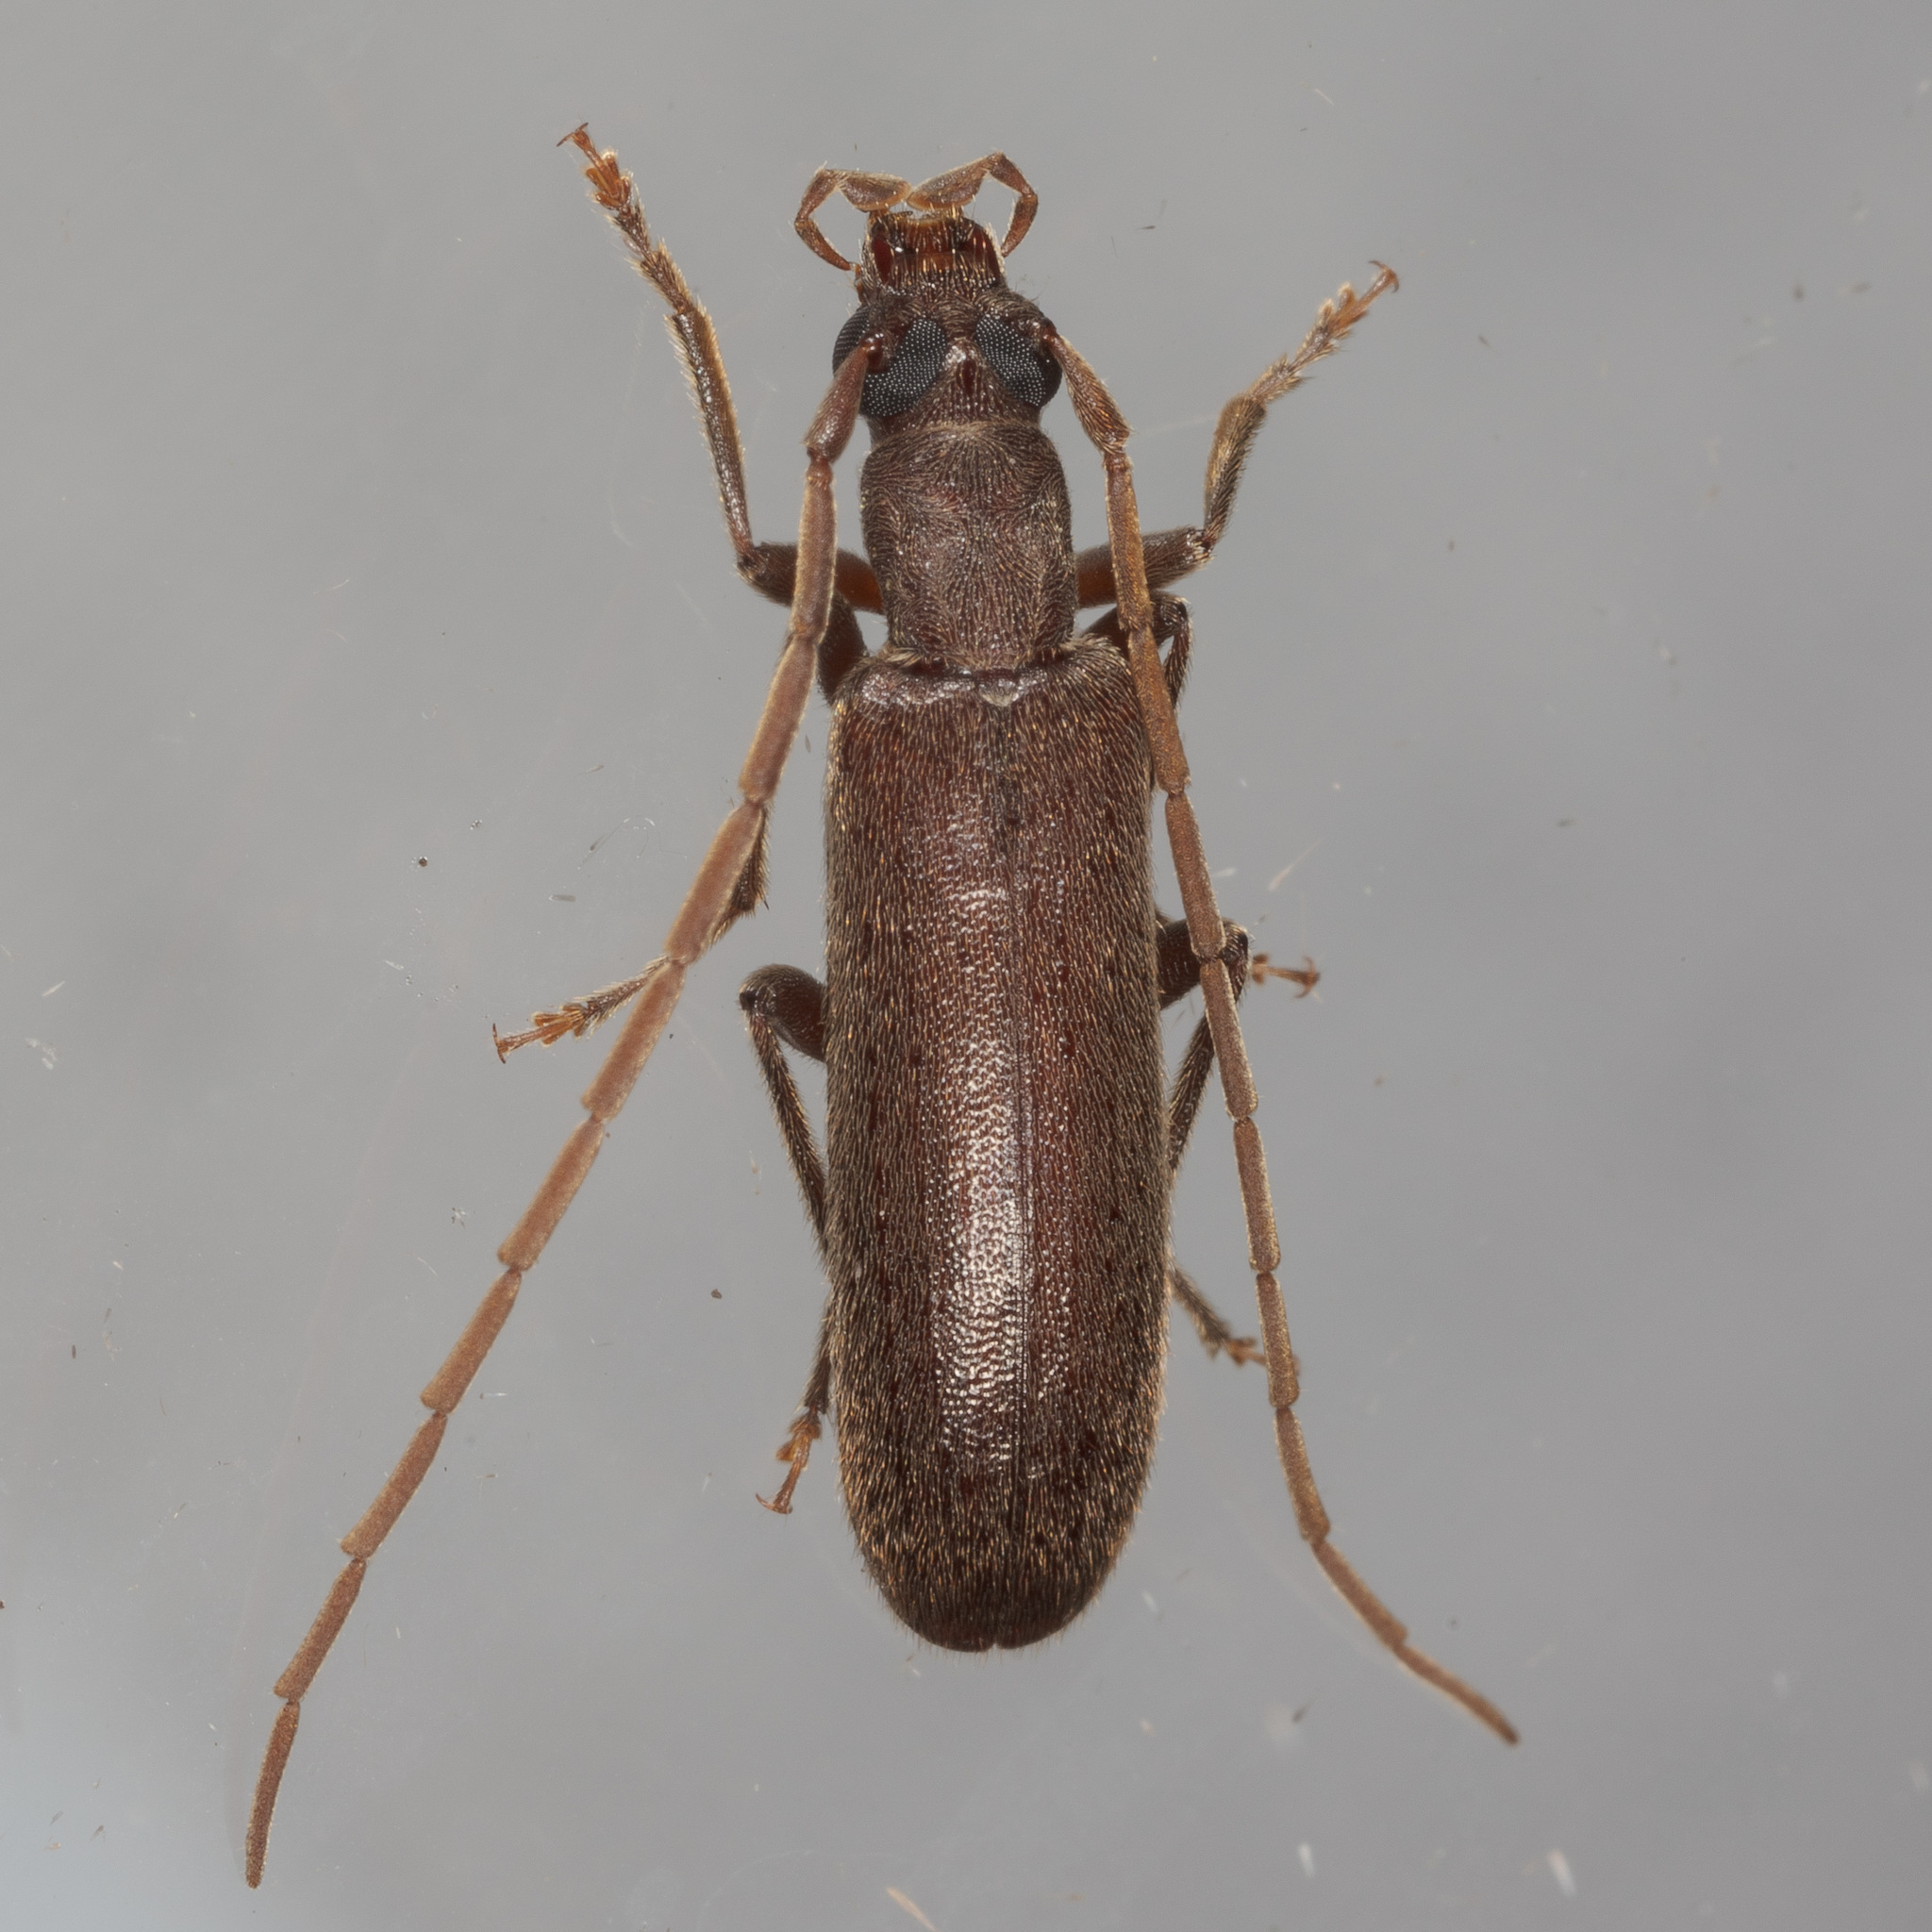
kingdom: Animalia
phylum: Arthropoda
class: Insecta
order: Coleoptera
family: Oedemeridae
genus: Sparedrus
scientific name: Sparedrus aspersus
